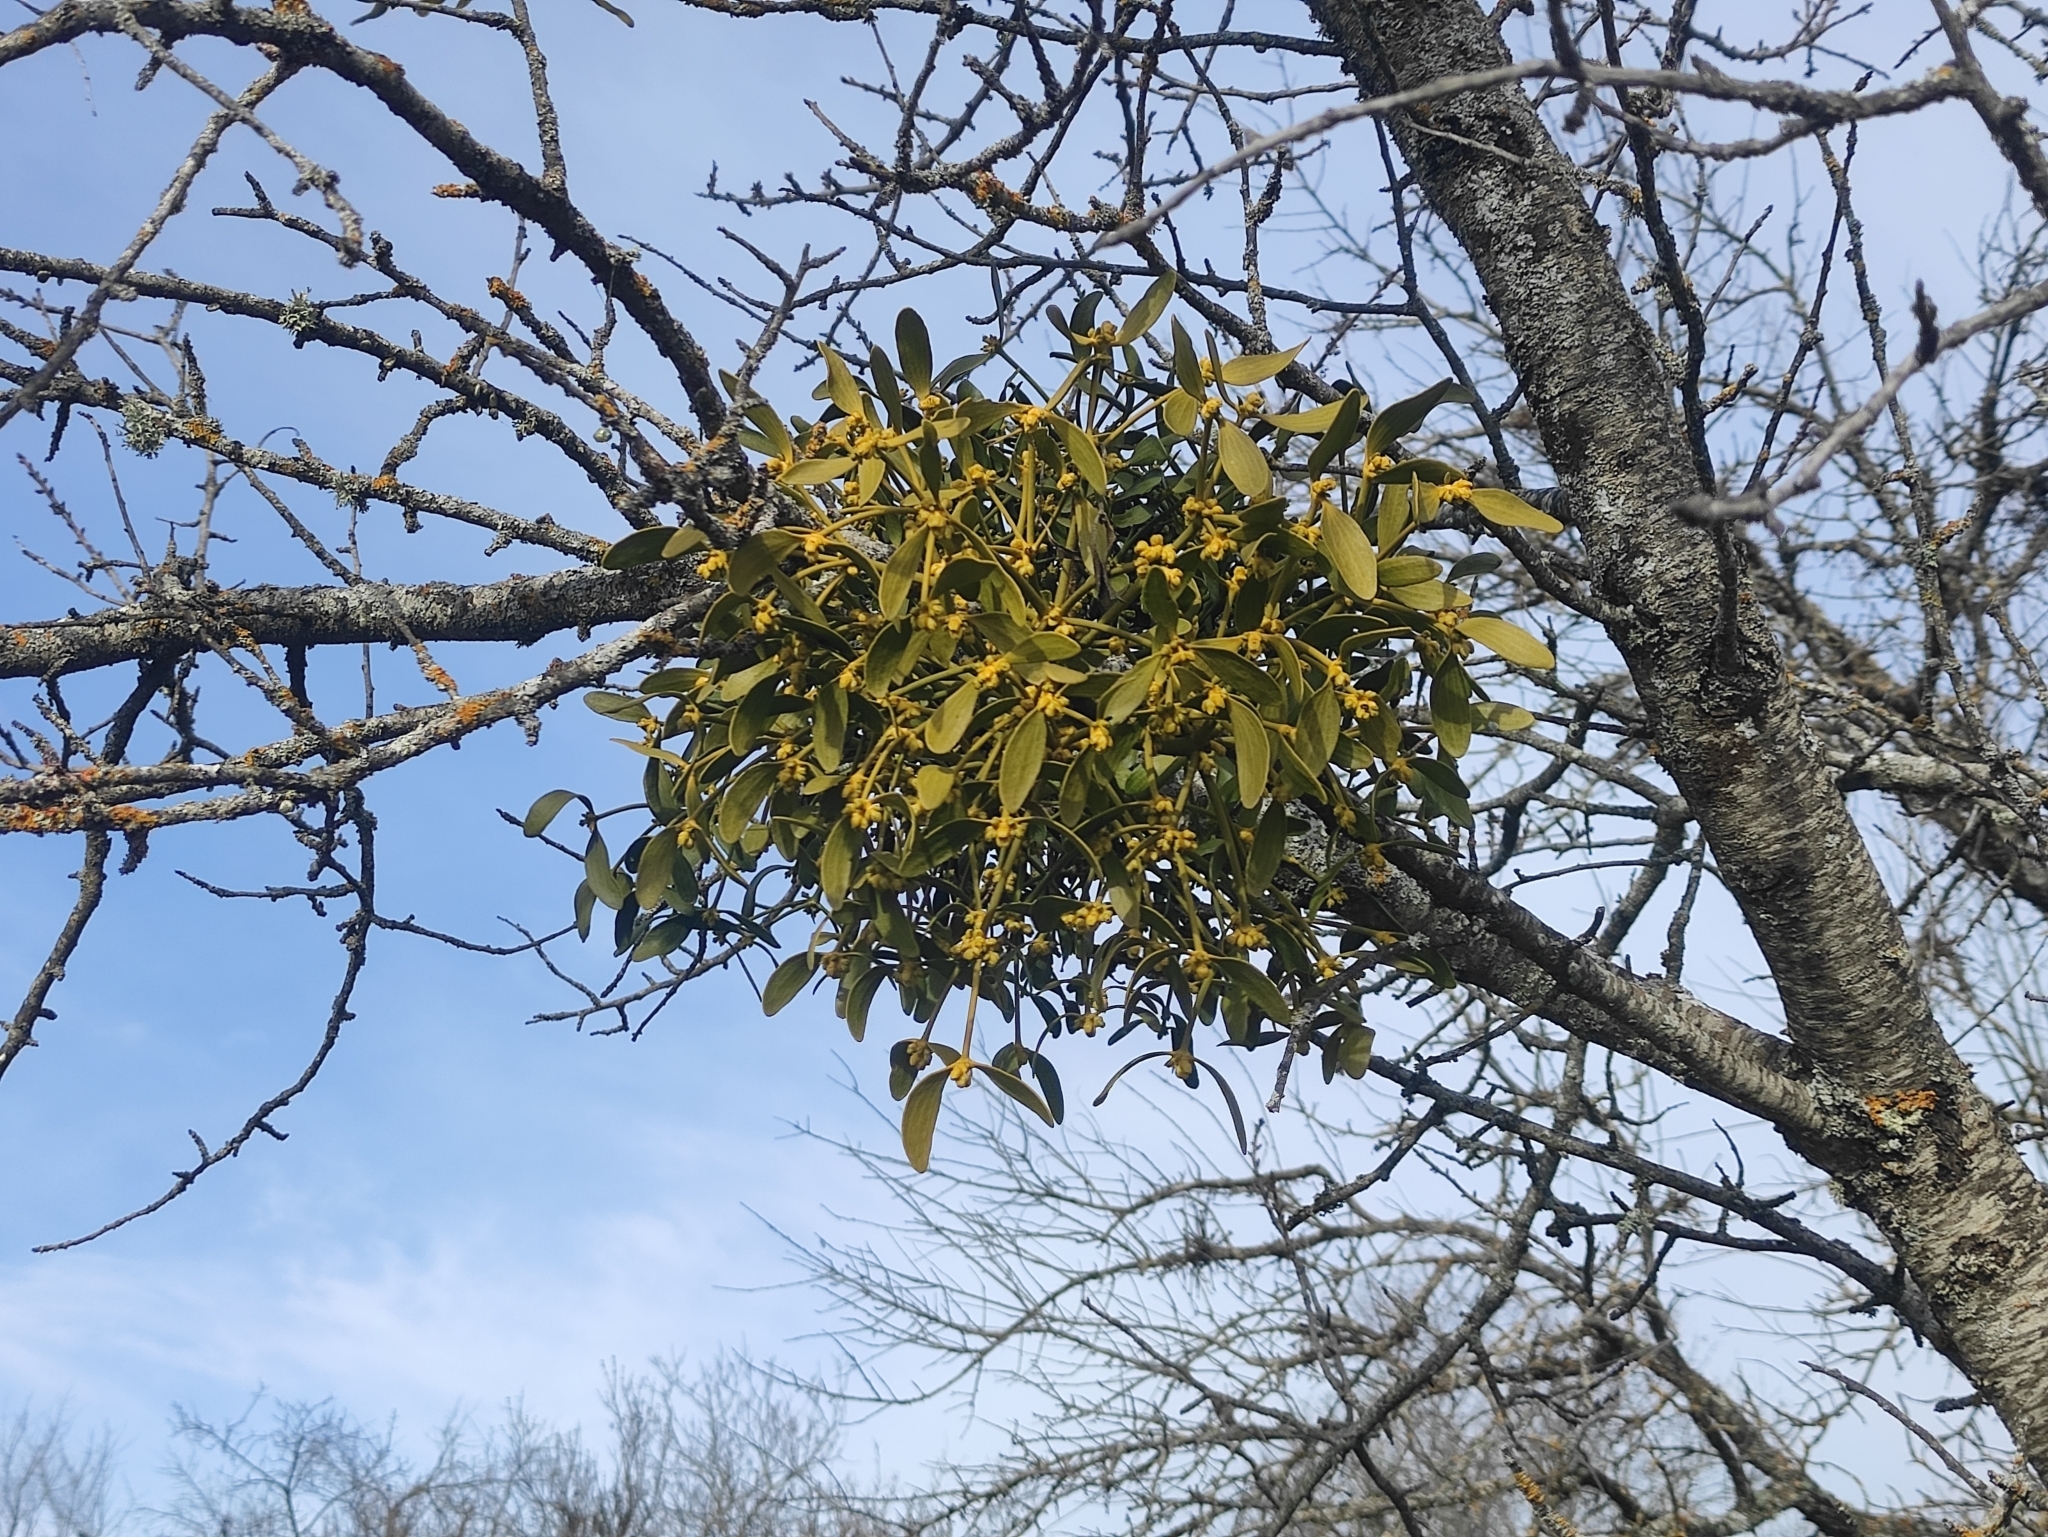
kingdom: Plantae
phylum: Tracheophyta
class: Magnoliopsida
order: Santalales
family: Viscaceae
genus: Viscum
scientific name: Viscum album
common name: Mistletoe
